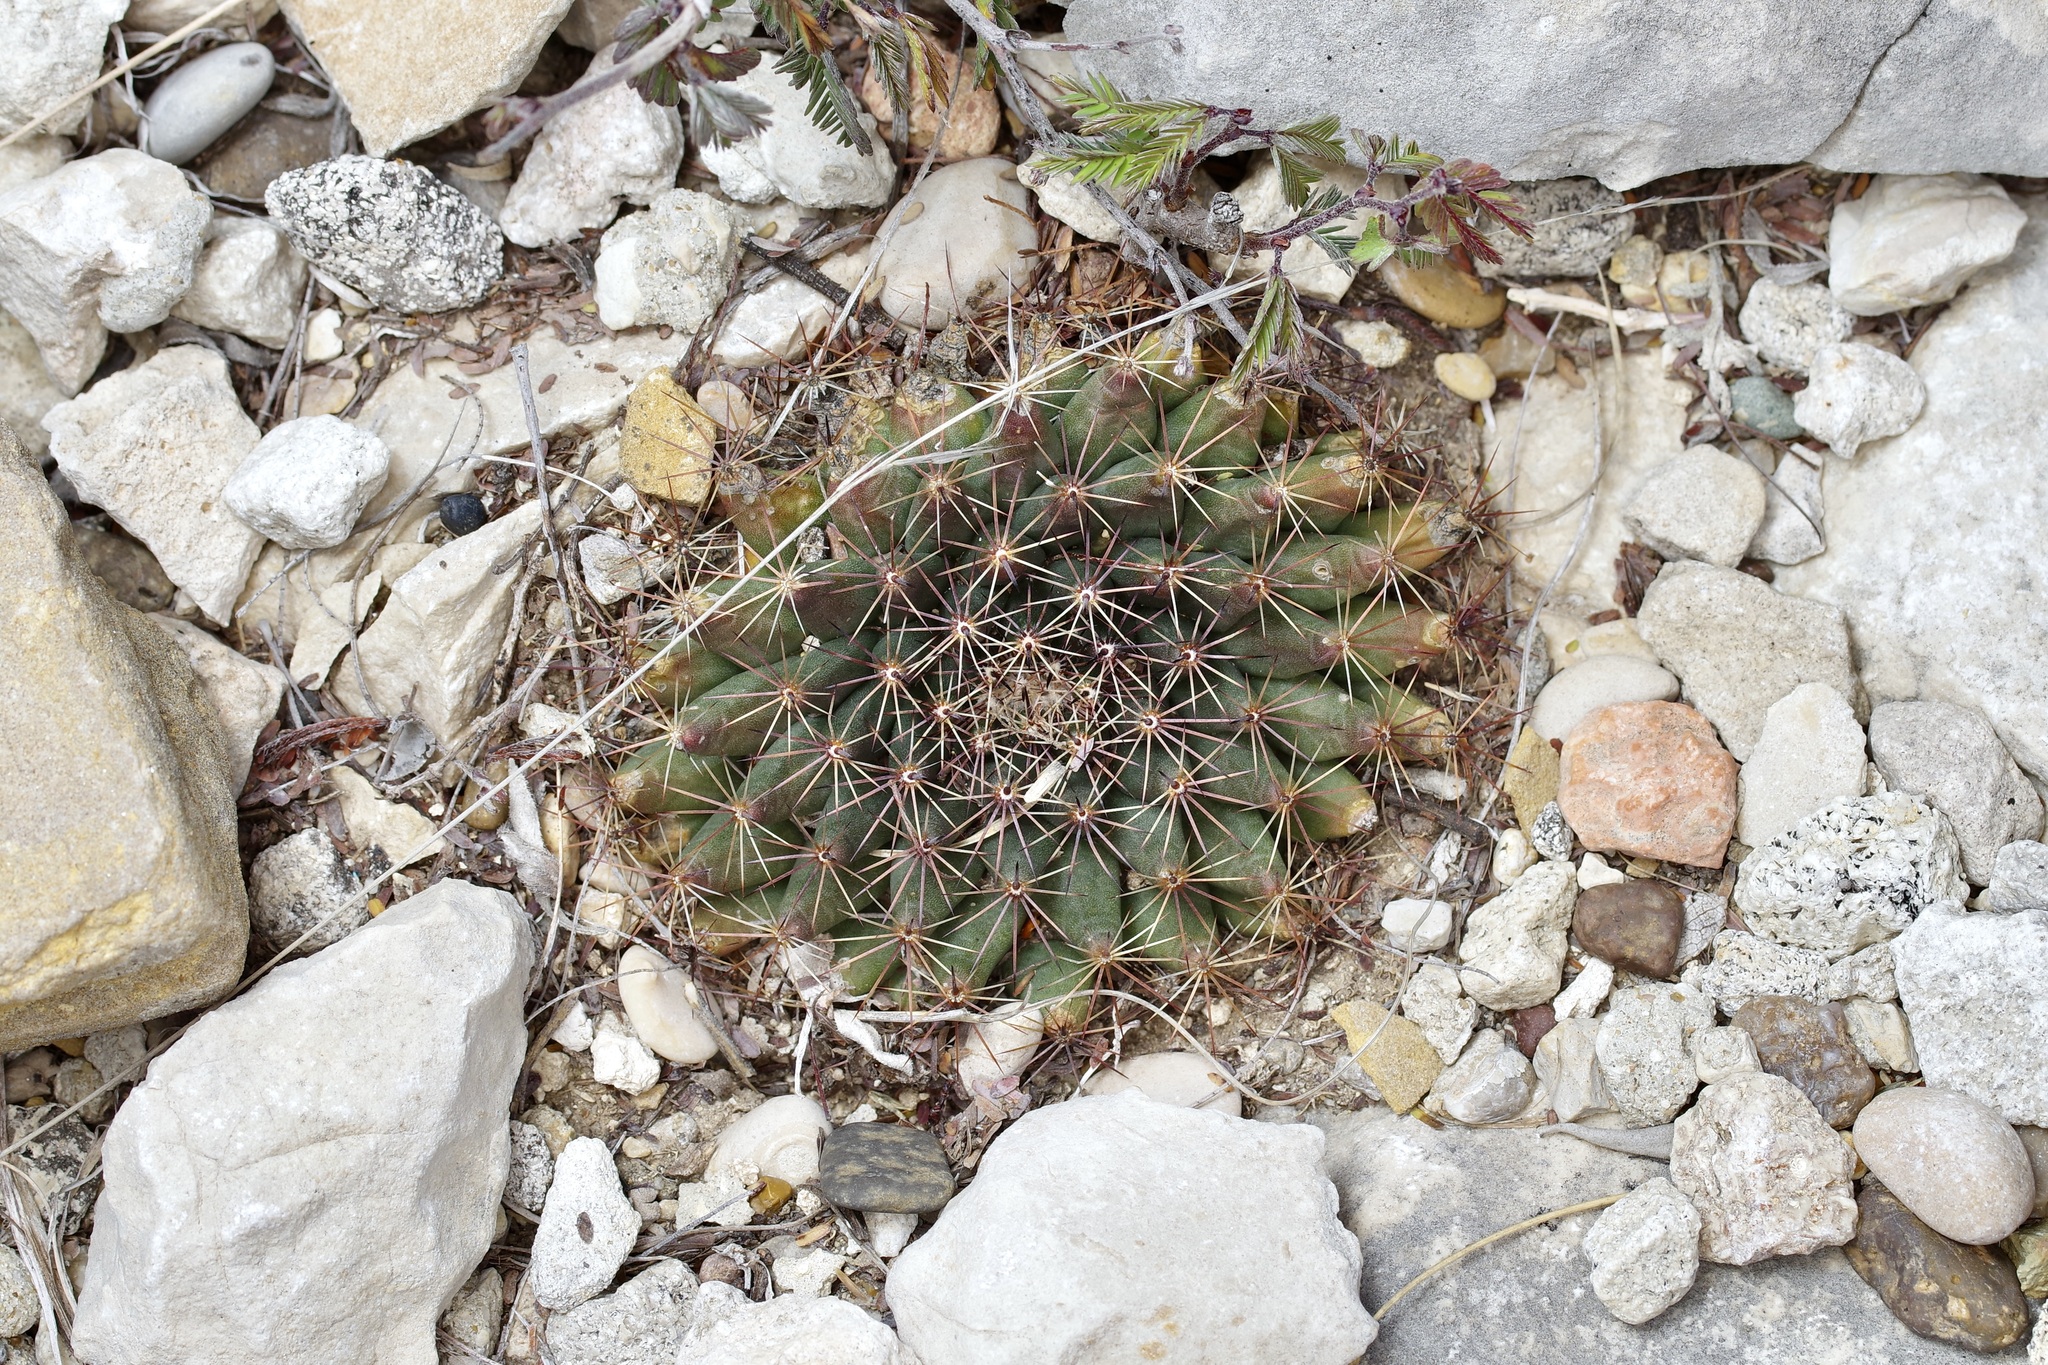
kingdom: Plantae
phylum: Tracheophyta
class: Magnoliopsida
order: Caryophyllales
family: Cactaceae
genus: Mammillaria
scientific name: Mammillaria heyderi
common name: Little nipple cactus
